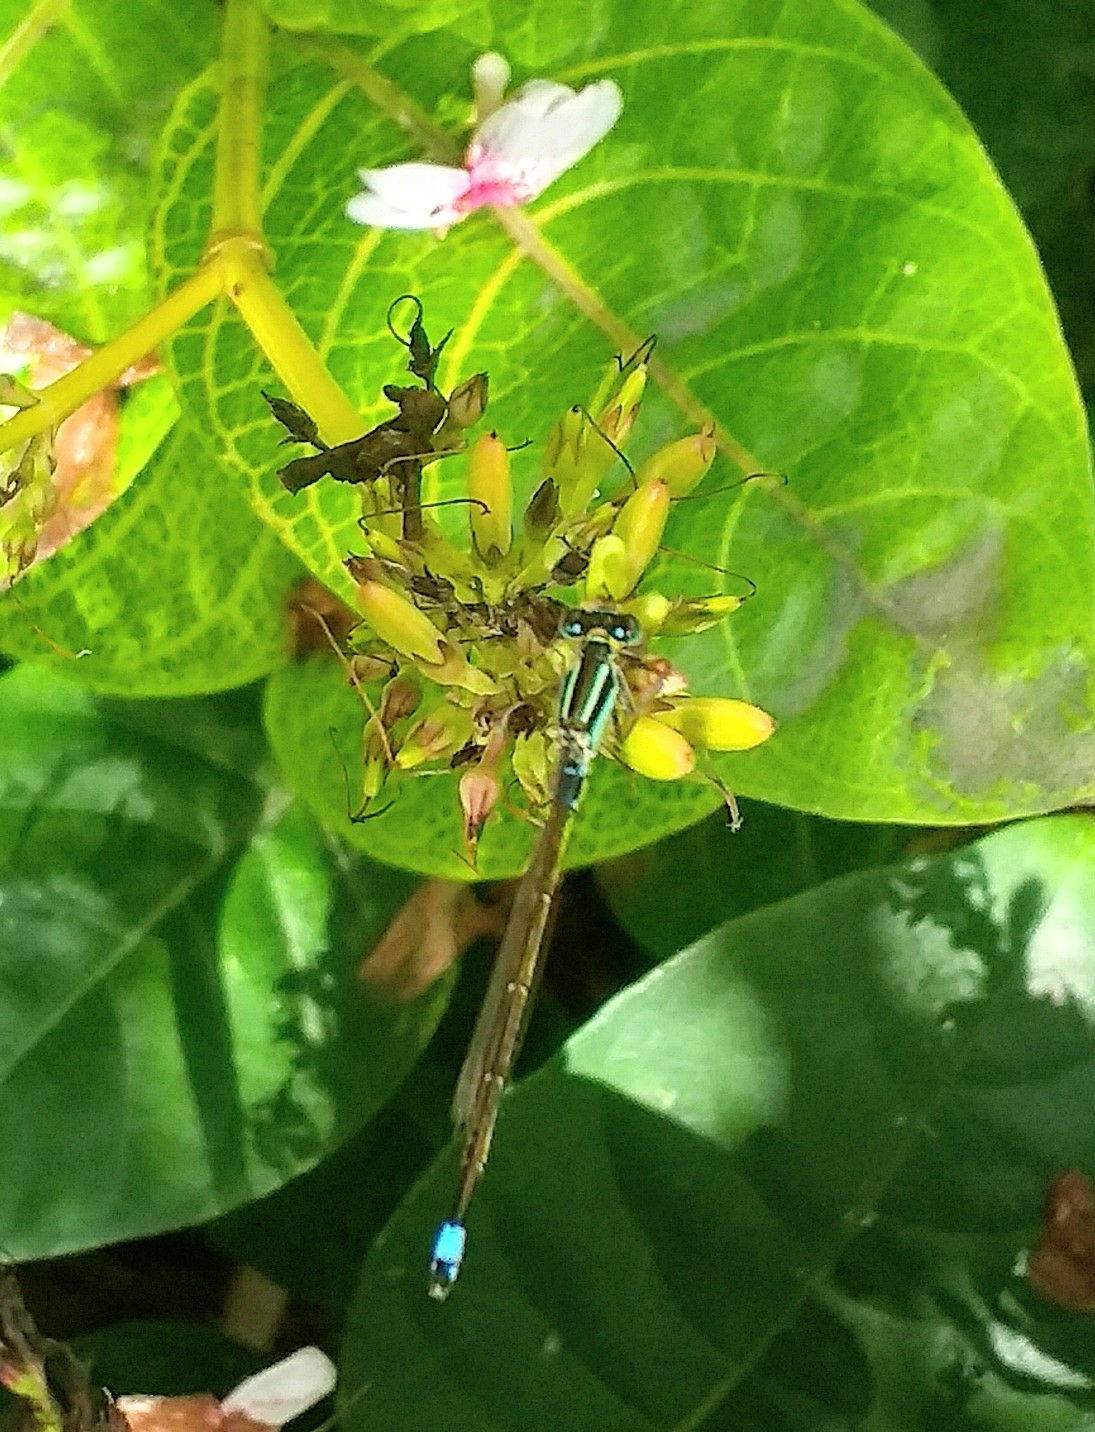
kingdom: Animalia
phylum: Arthropoda
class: Insecta
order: Odonata
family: Coenagrionidae
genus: Ischnura
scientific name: Ischnura senegalensis
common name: Tropical bluetail
